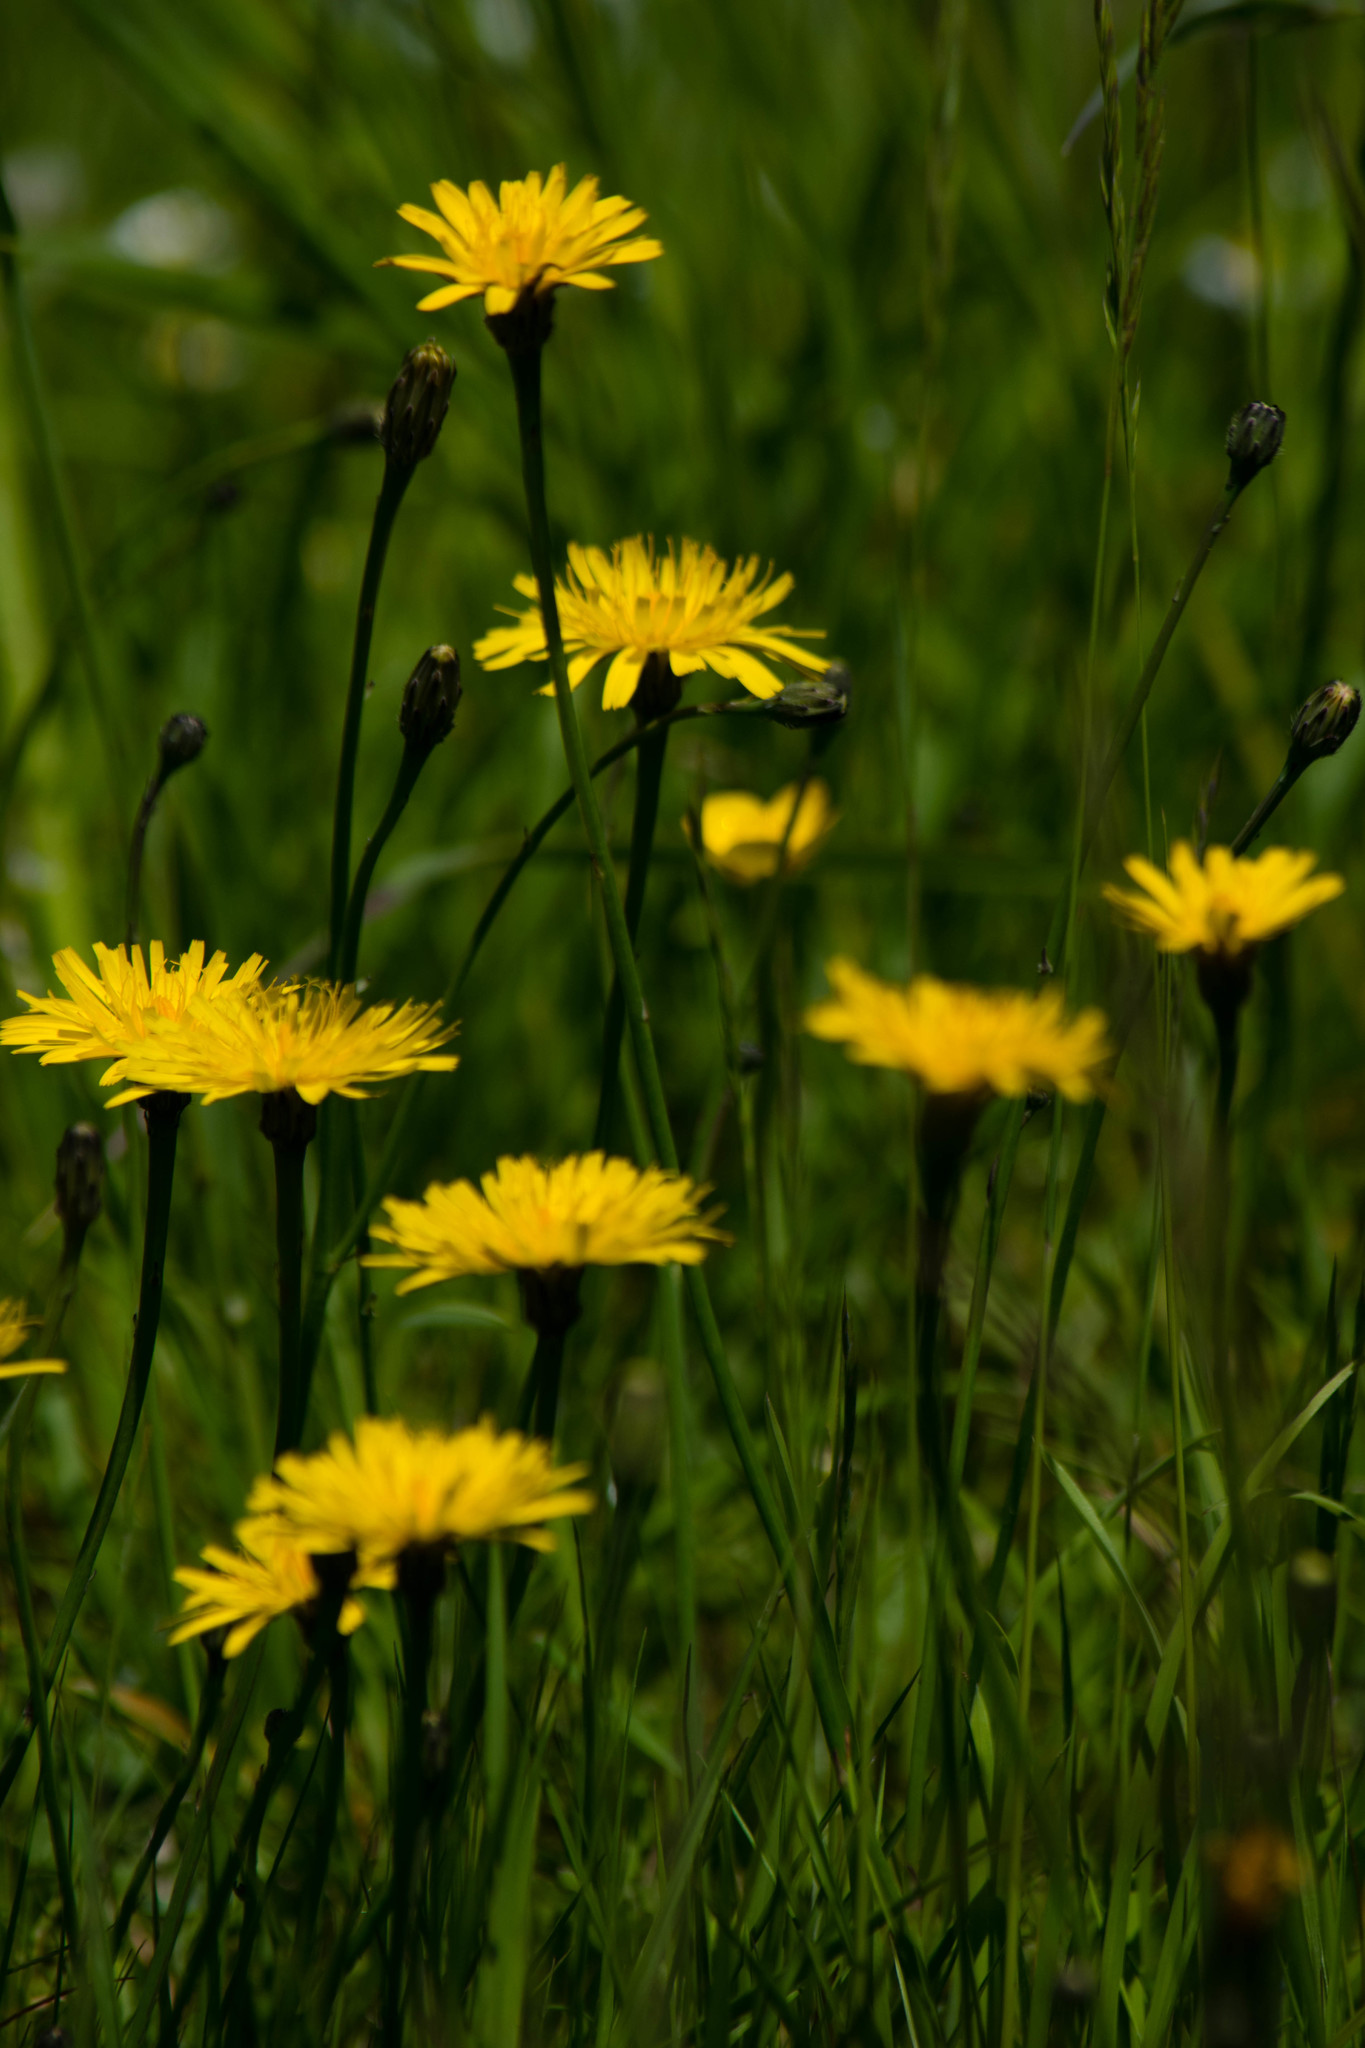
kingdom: Plantae
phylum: Tracheophyta
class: Magnoliopsida
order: Asterales
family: Asteraceae
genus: Hypochaeris
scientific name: Hypochaeris radicata
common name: Flatweed
